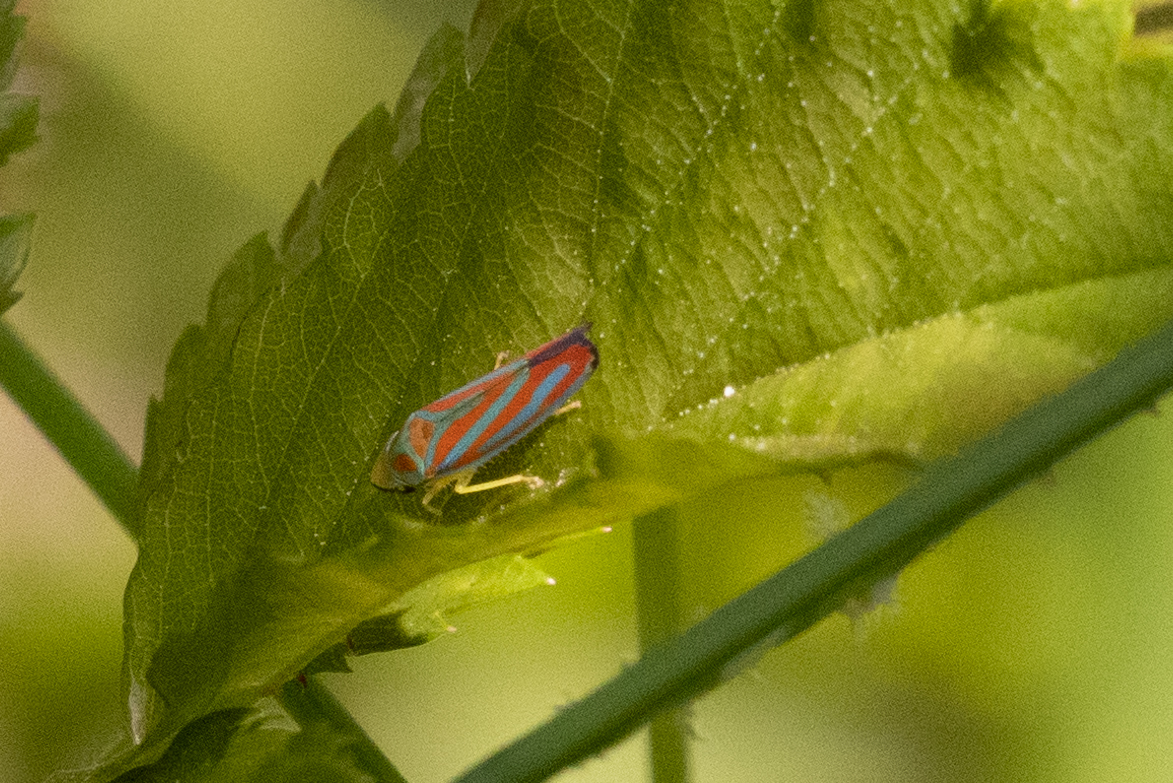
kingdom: Animalia
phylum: Arthropoda
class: Insecta
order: Hemiptera
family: Cicadellidae
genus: Graphocephala
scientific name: Graphocephala coccinea
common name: Candy-striped leafhopper
